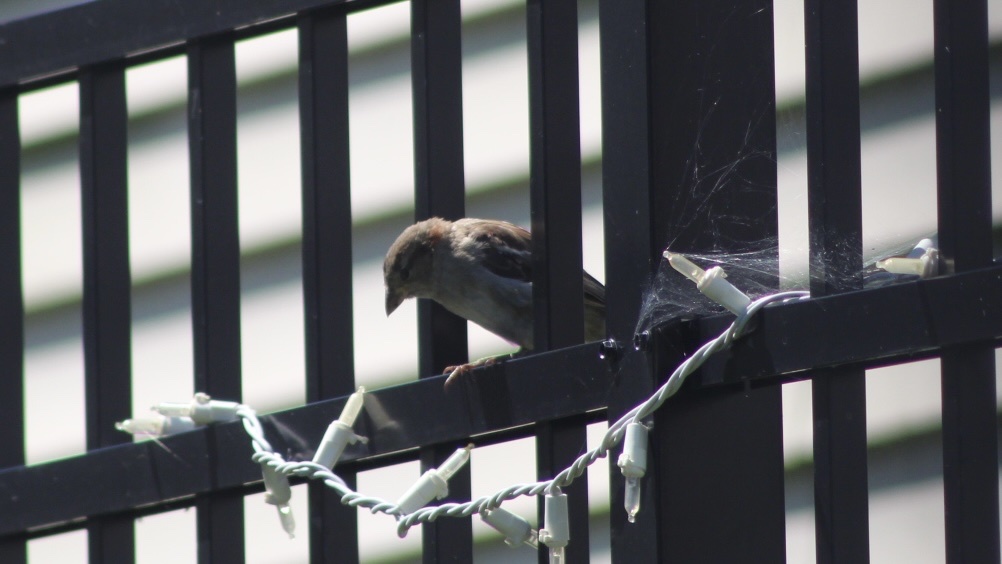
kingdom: Animalia
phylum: Chordata
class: Aves
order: Passeriformes
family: Passeridae
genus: Passer
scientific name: Passer domesticus
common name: House sparrow
